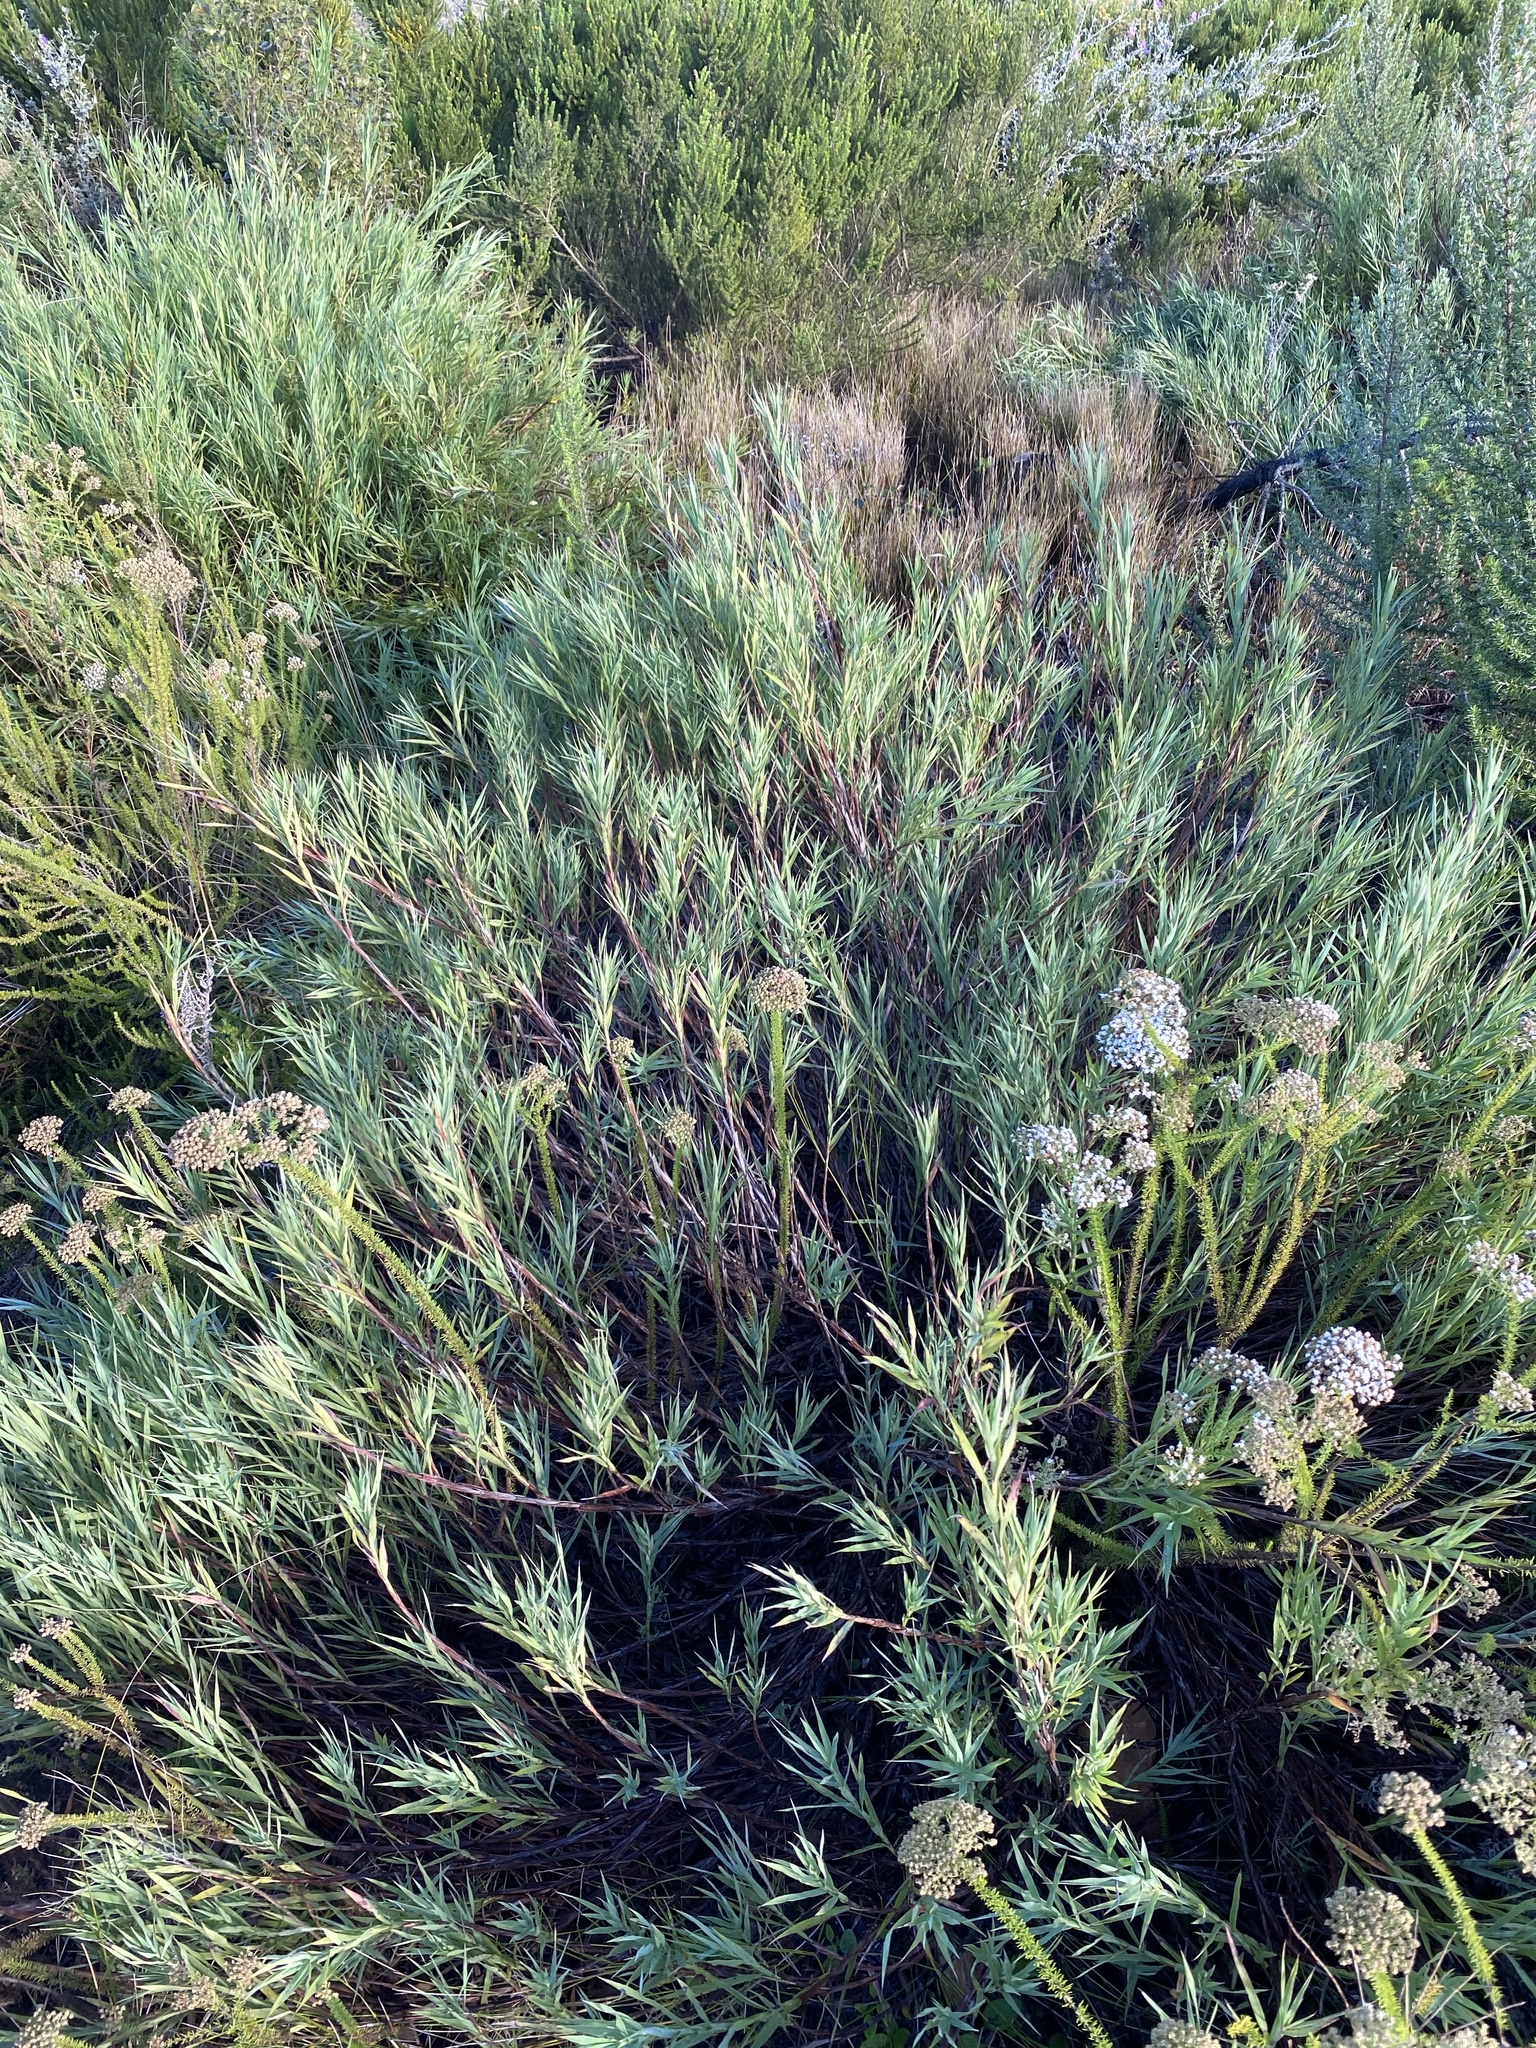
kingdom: Plantae
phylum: Tracheophyta
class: Magnoliopsida
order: Rosales
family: Rosaceae
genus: Cliffortia
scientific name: Cliffortia graminea
